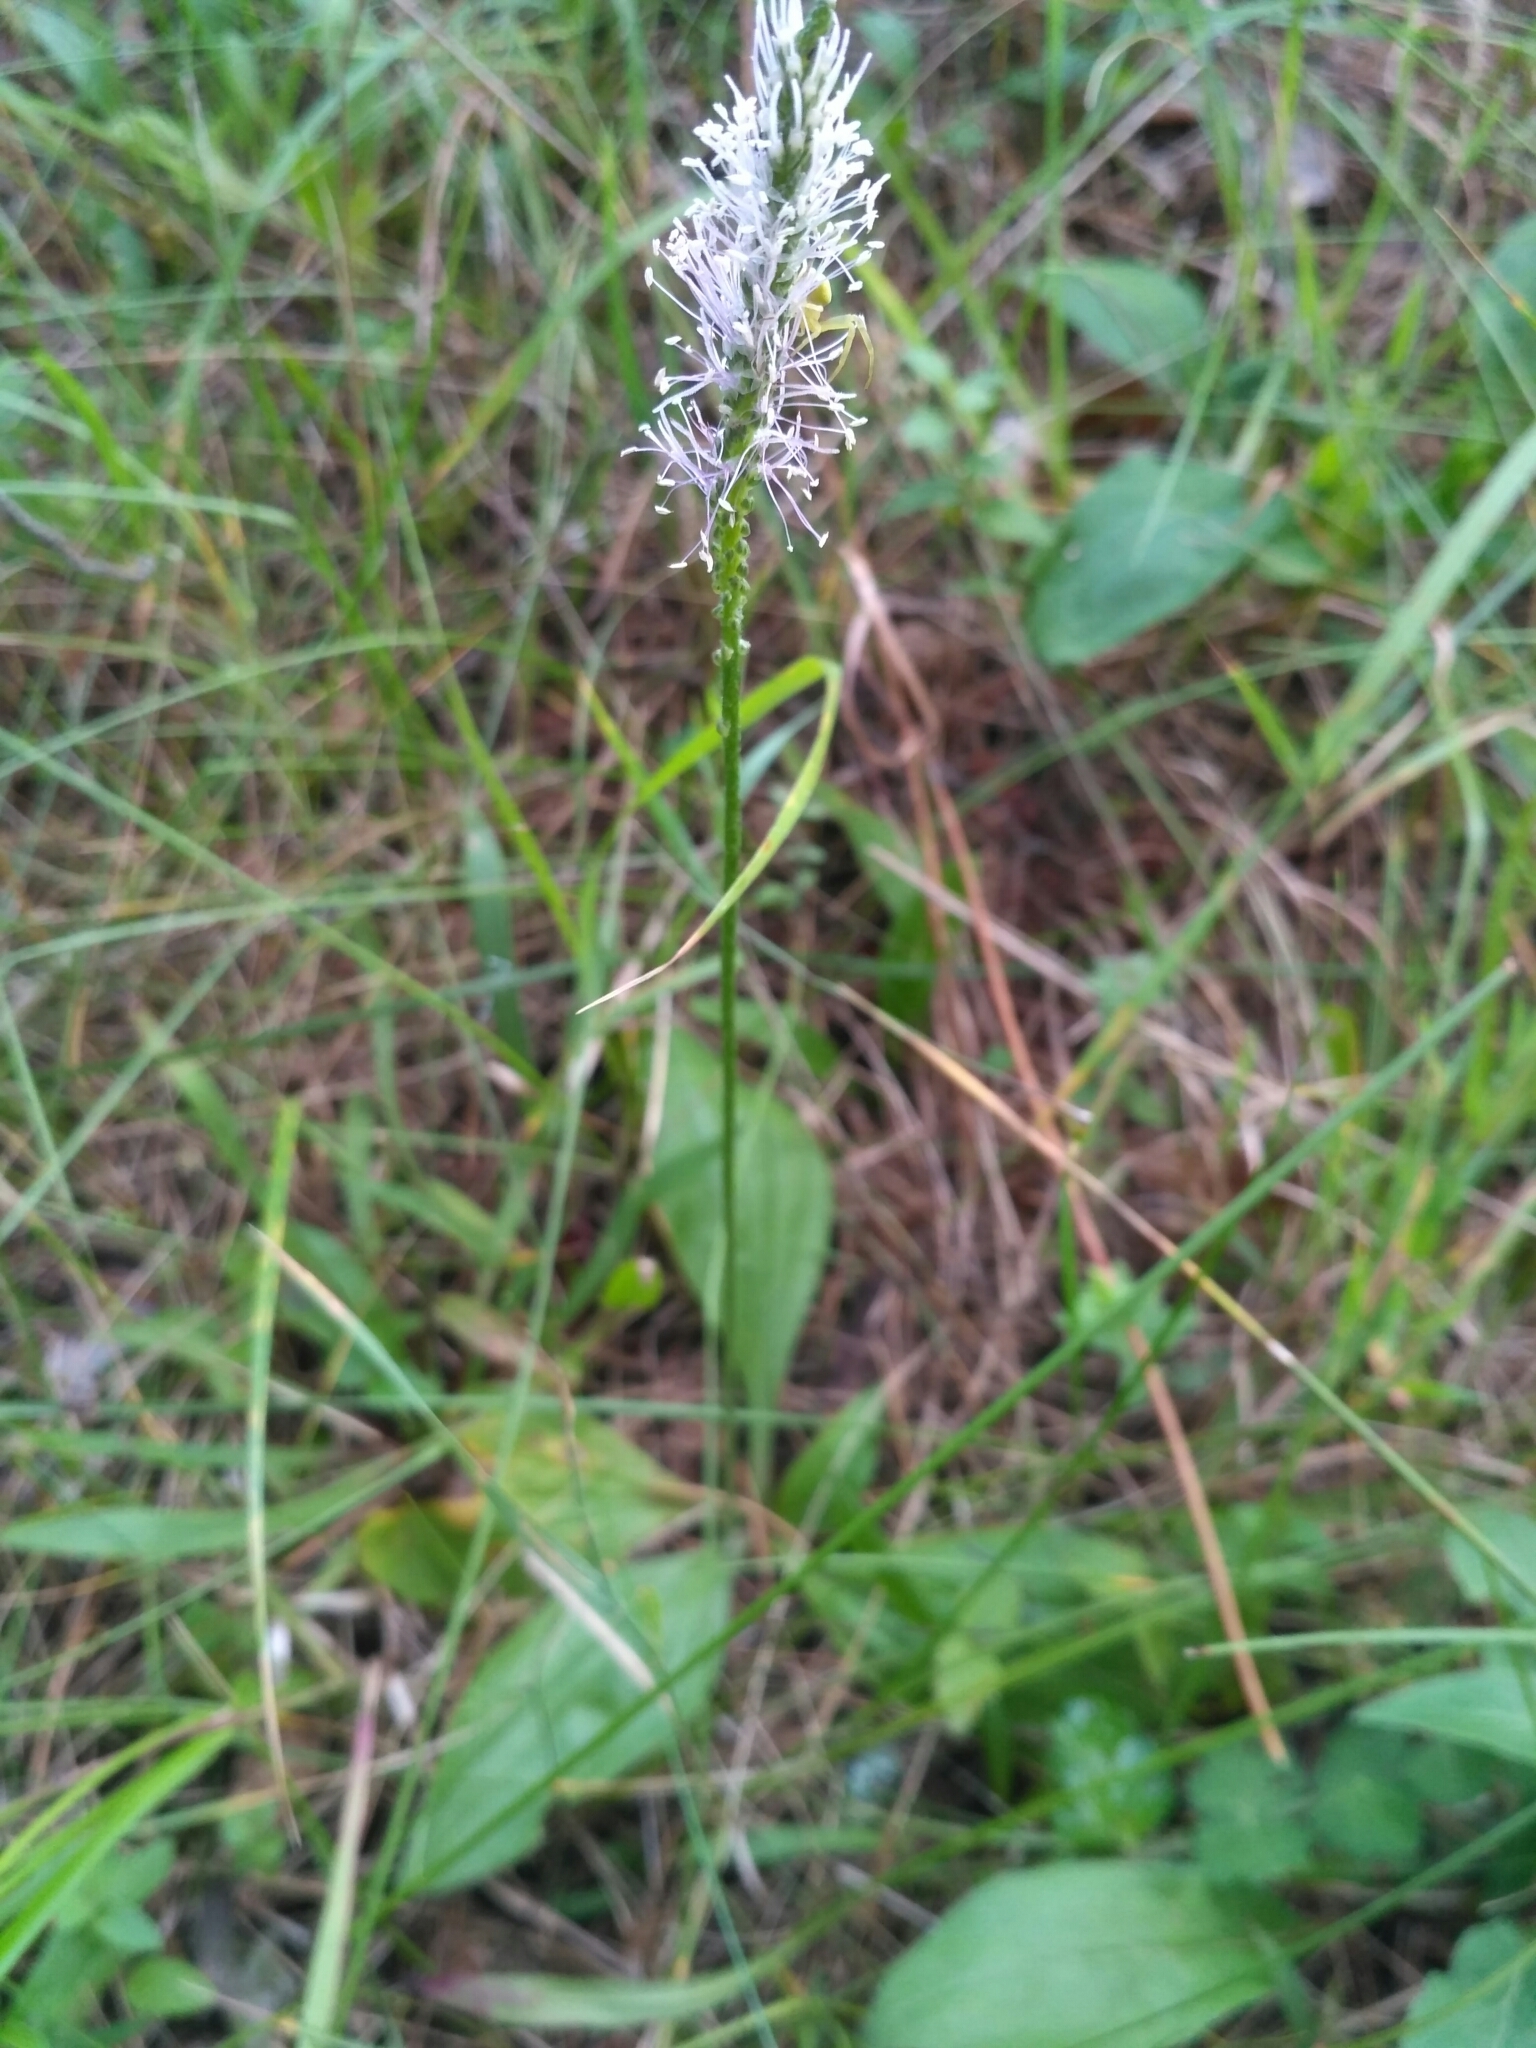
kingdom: Plantae
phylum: Tracheophyta
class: Magnoliopsida
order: Lamiales
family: Plantaginaceae
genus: Plantago
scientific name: Plantago media
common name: Hoary plantain
